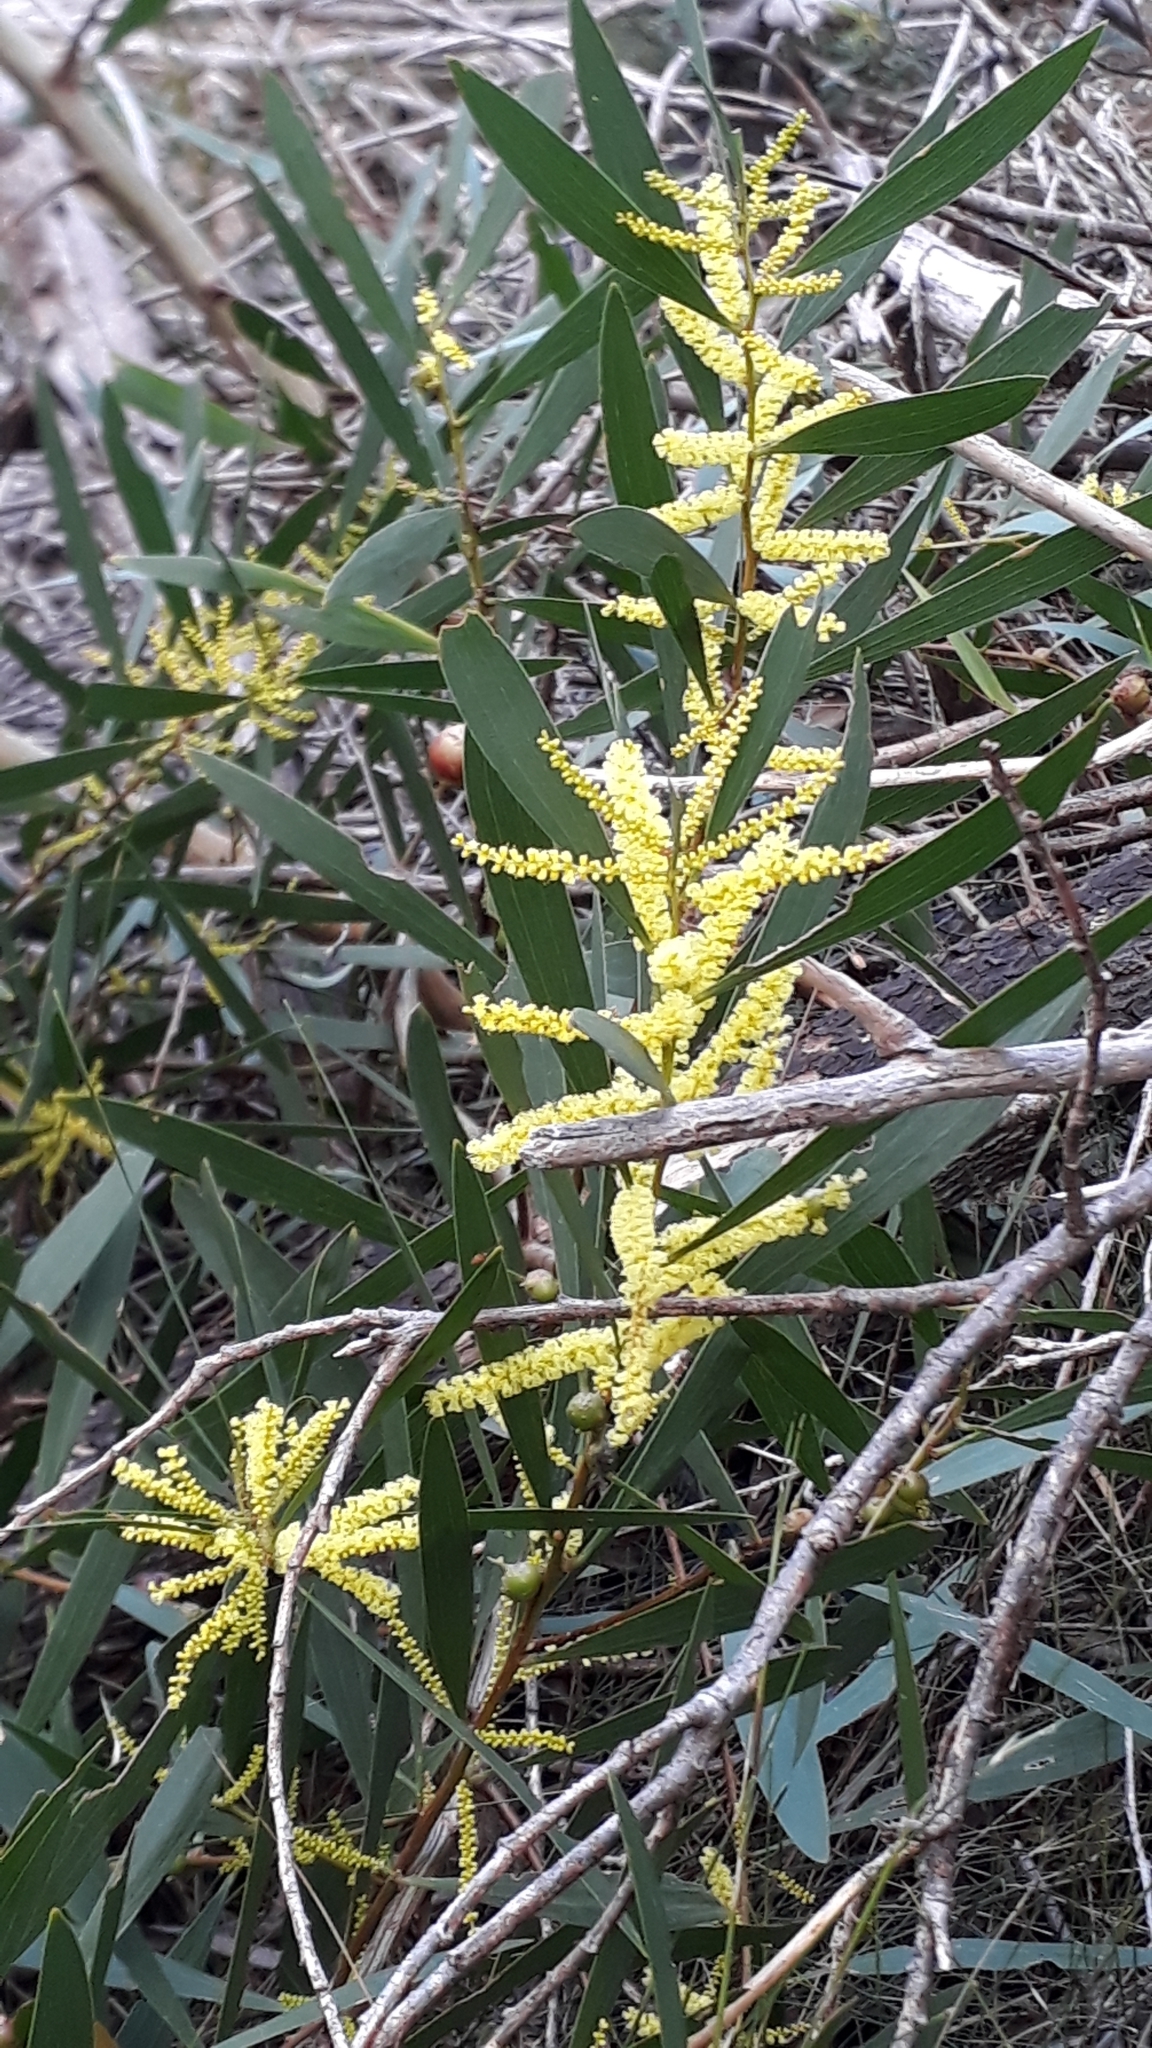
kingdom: Plantae
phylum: Tracheophyta
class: Magnoliopsida
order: Fabales
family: Fabaceae
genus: Acacia
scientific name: Acacia longifolia
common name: Sydney golden wattle
